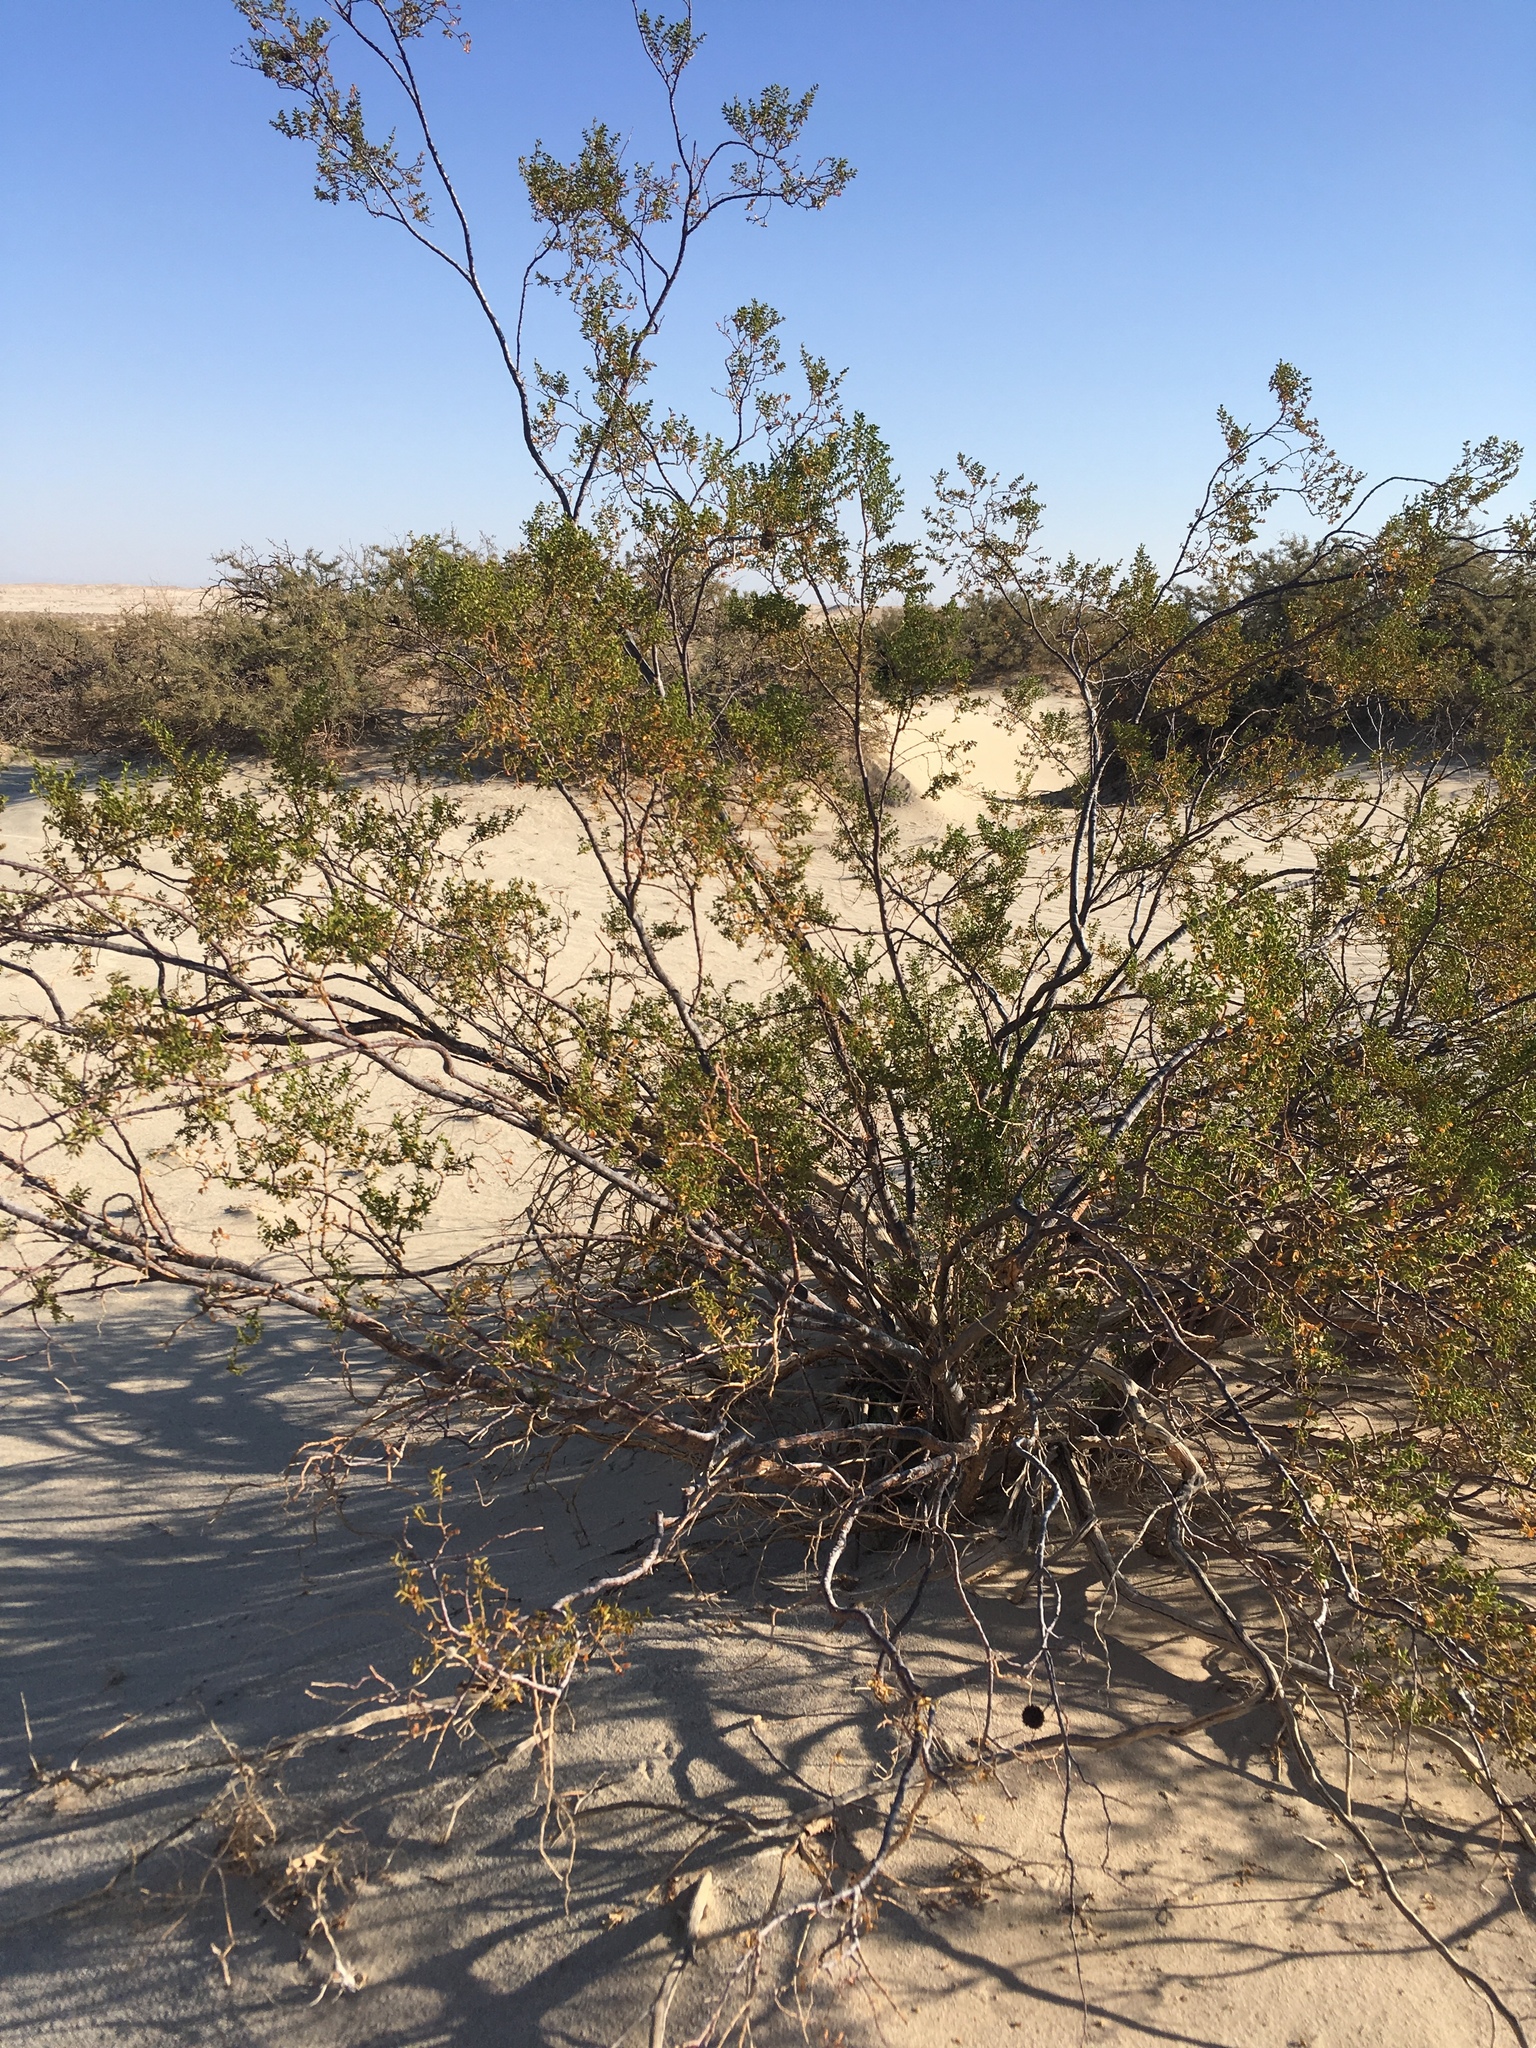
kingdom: Plantae
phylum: Tracheophyta
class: Magnoliopsida
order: Zygophyllales
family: Zygophyllaceae
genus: Larrea
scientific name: Larrea tridentata
